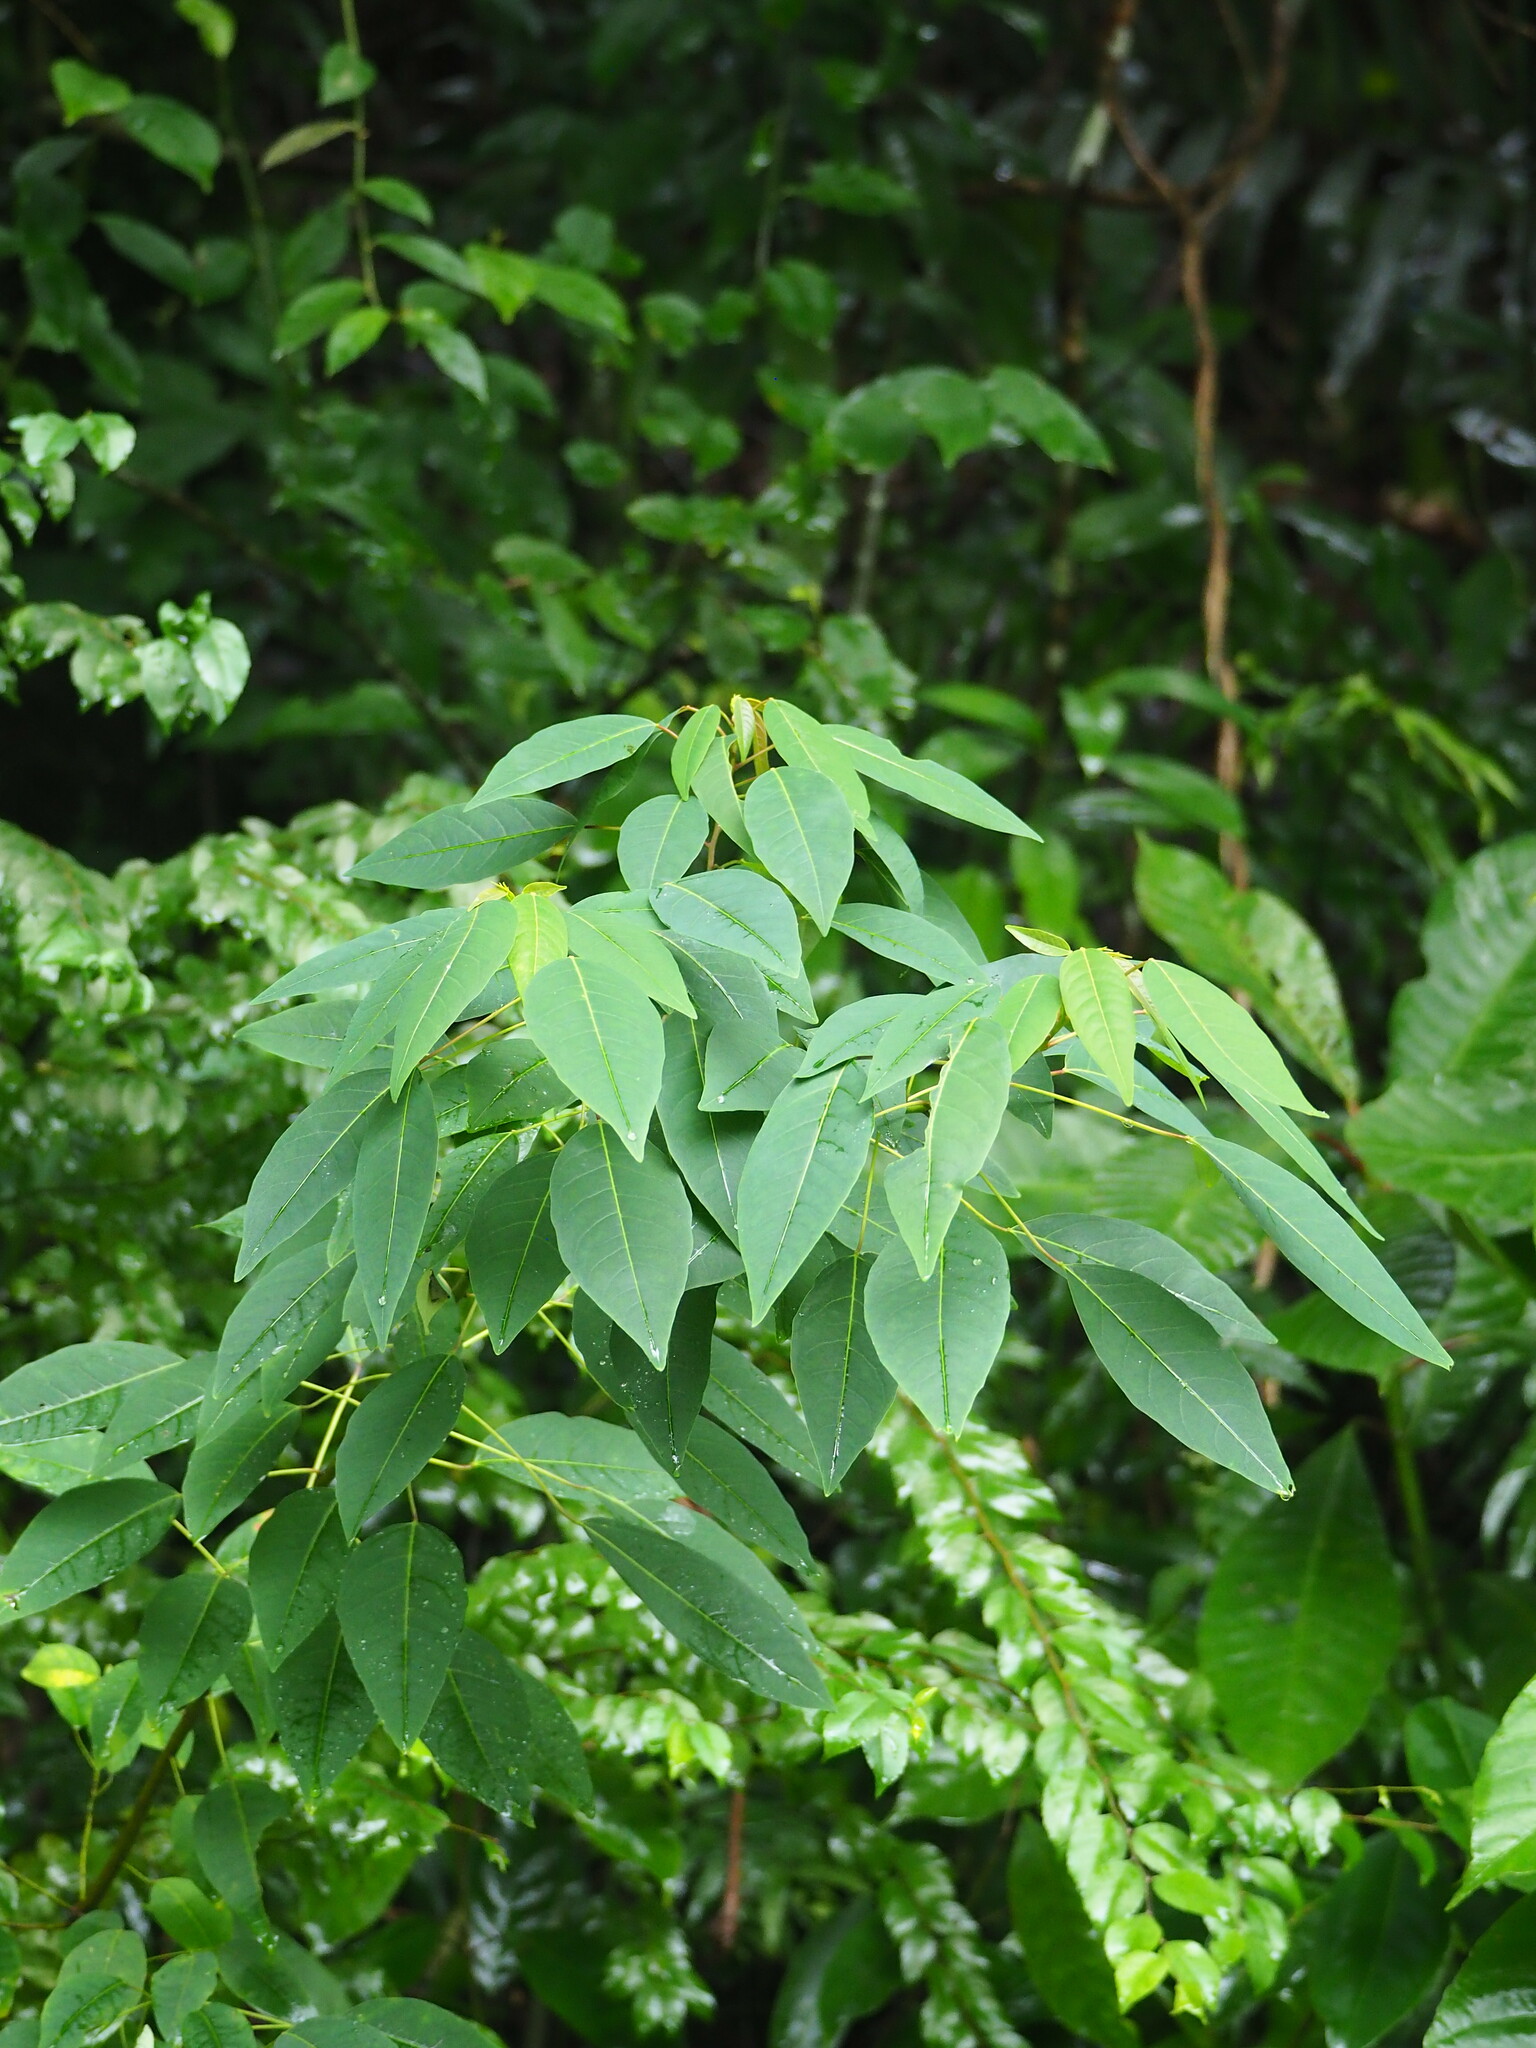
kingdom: Plantae
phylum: Tracheophyta
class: Magnoliopsida
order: Malpighiales
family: Euphorbiaceae
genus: Triadica
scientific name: Triadica cochinchinensis
